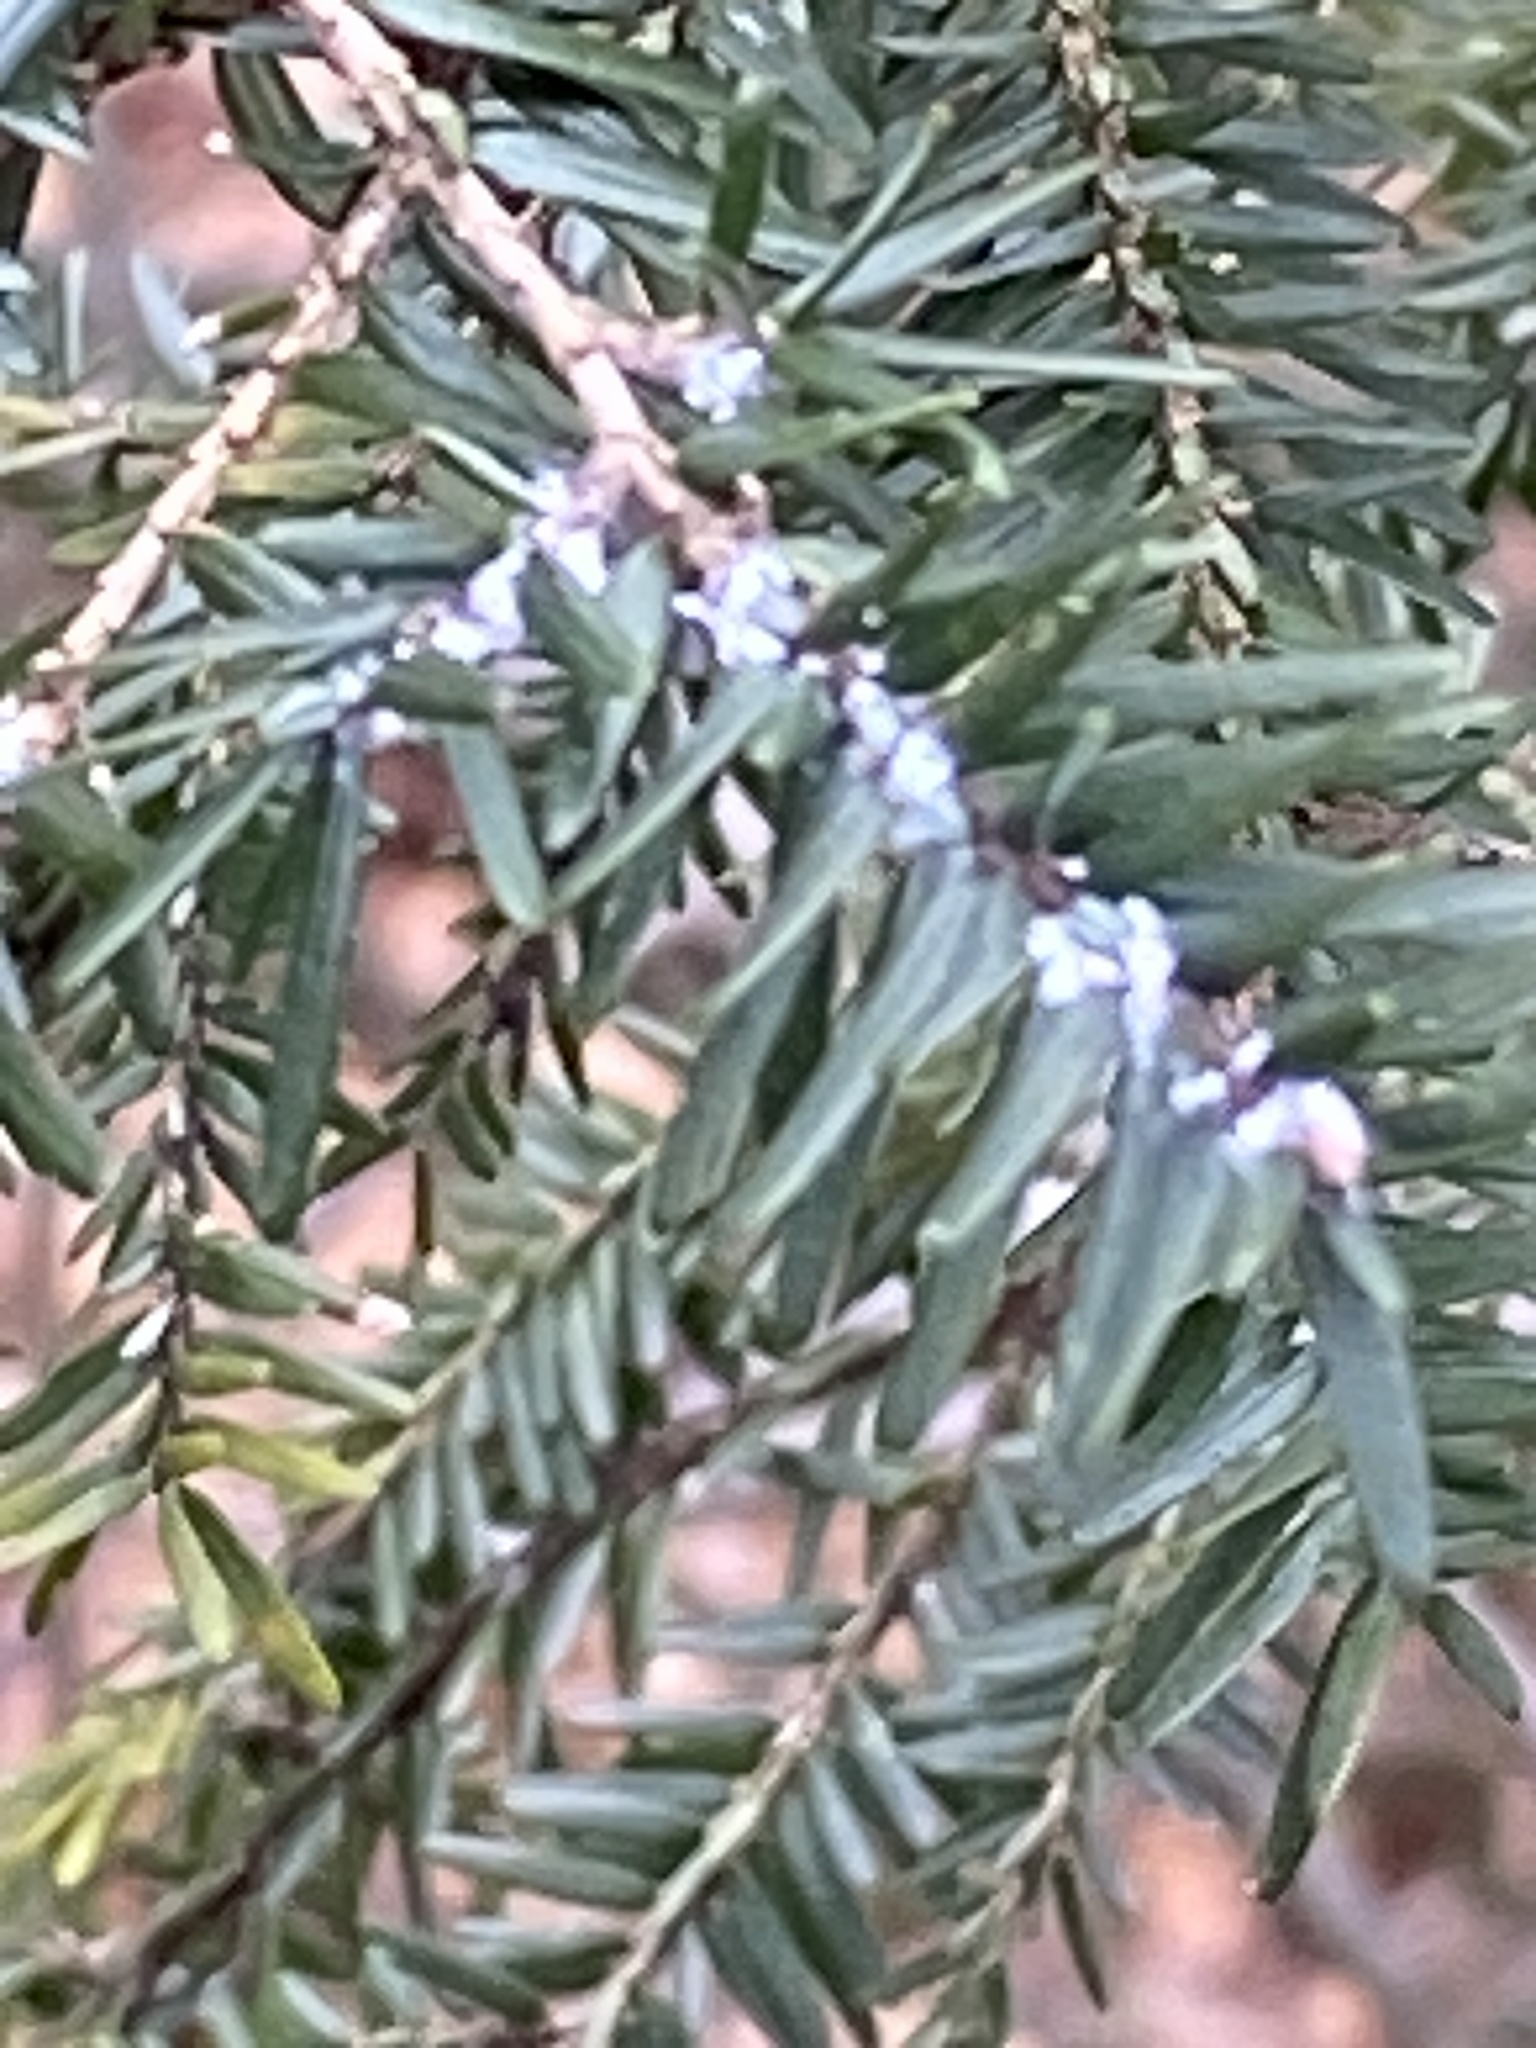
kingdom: Animalia
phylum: Arthropoda
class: Insecta
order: Hemiptera
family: Adelgidae
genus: Adelges
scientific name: Adelges tsugae
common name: Hemlock woolly adelgid
